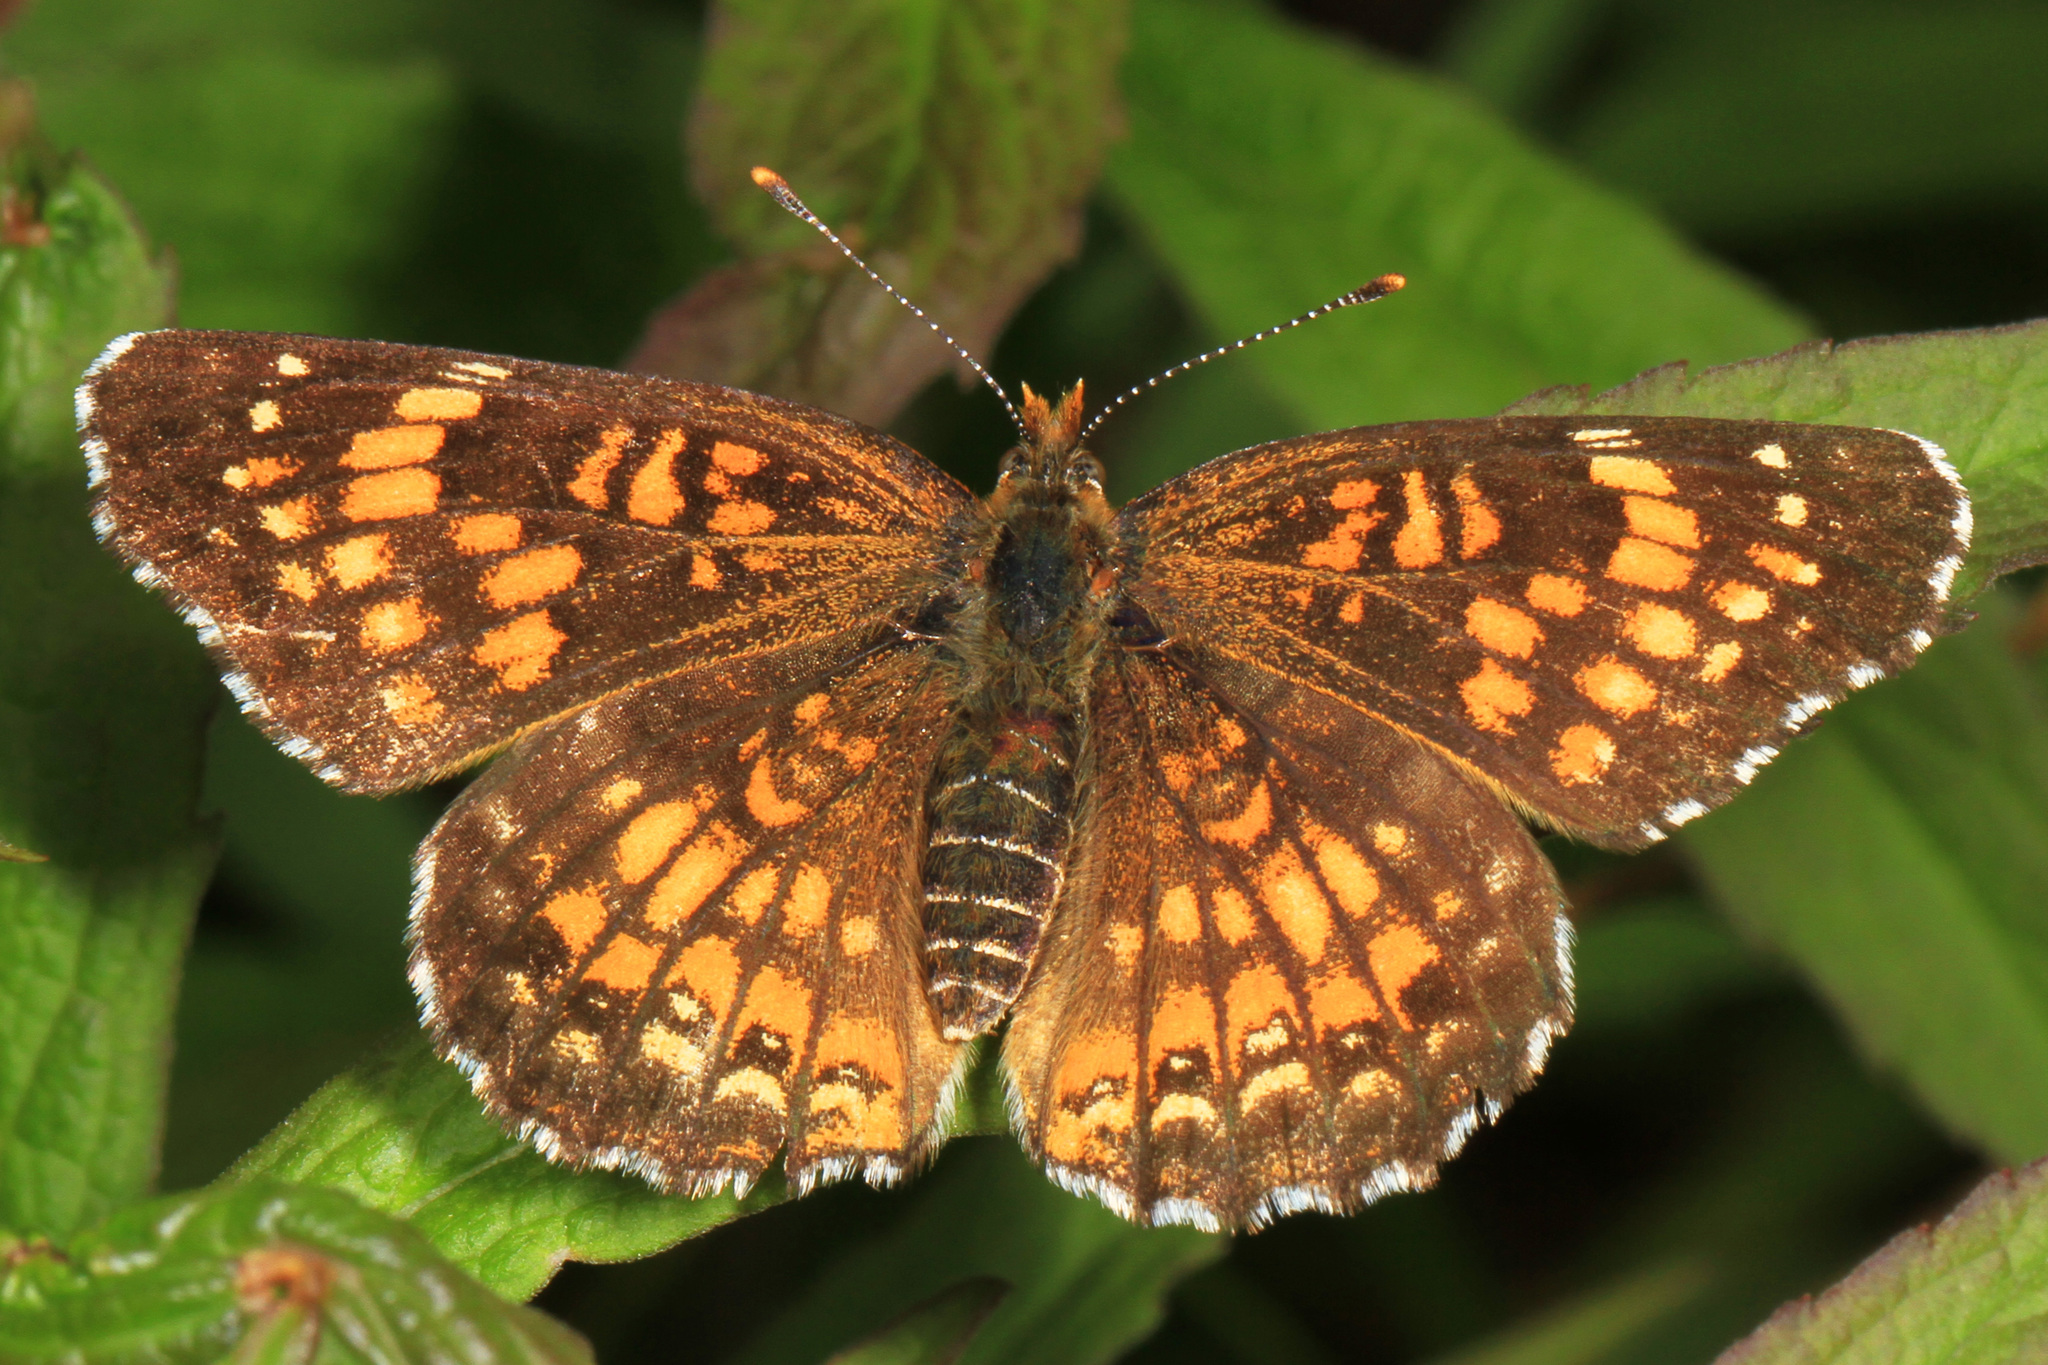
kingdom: Animalia
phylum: Arthropoda
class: Insecta
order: Lepidoptera
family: Nymphalidae
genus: Chlosyne
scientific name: Chlosyne harrisii
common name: Harris's checkerspot
